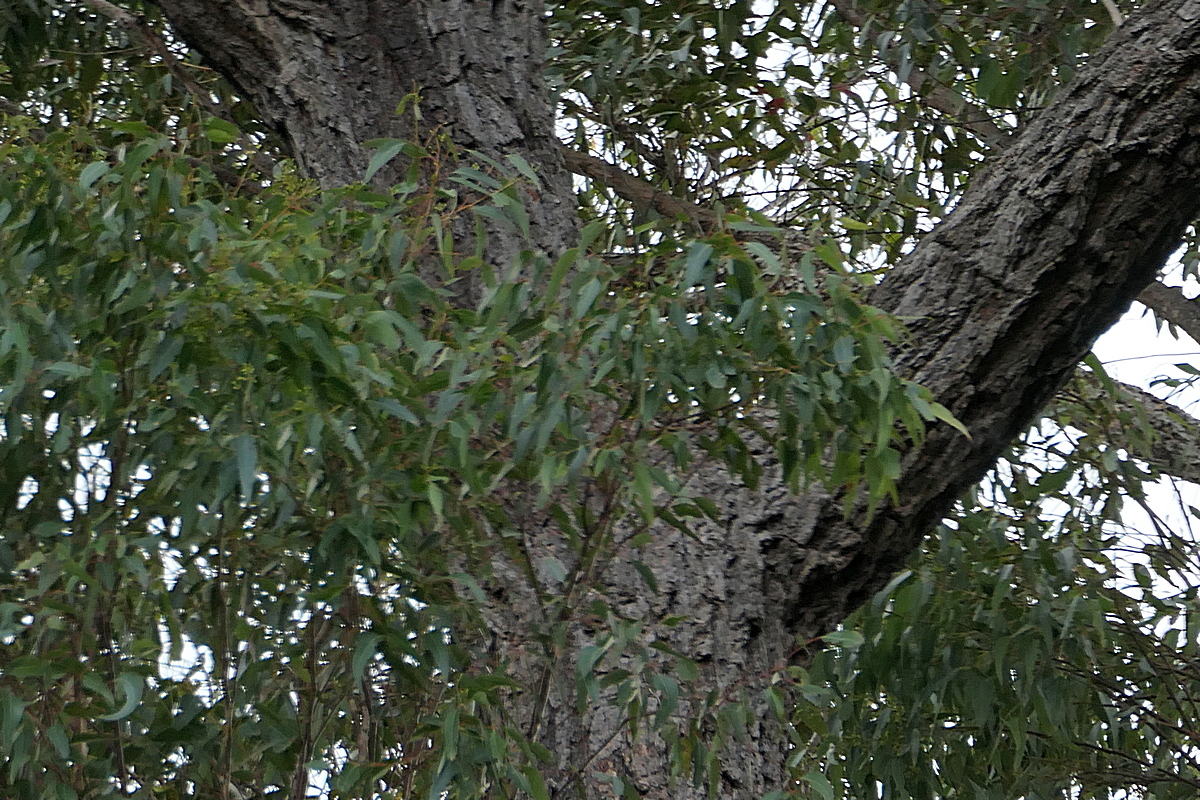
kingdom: Plantae
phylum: Tracheophyta
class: Magnoliopsida
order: Myrtales
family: Myrtaceae
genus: Eucalyptus
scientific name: Eucalyptus paniculata
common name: Gray ironbark
